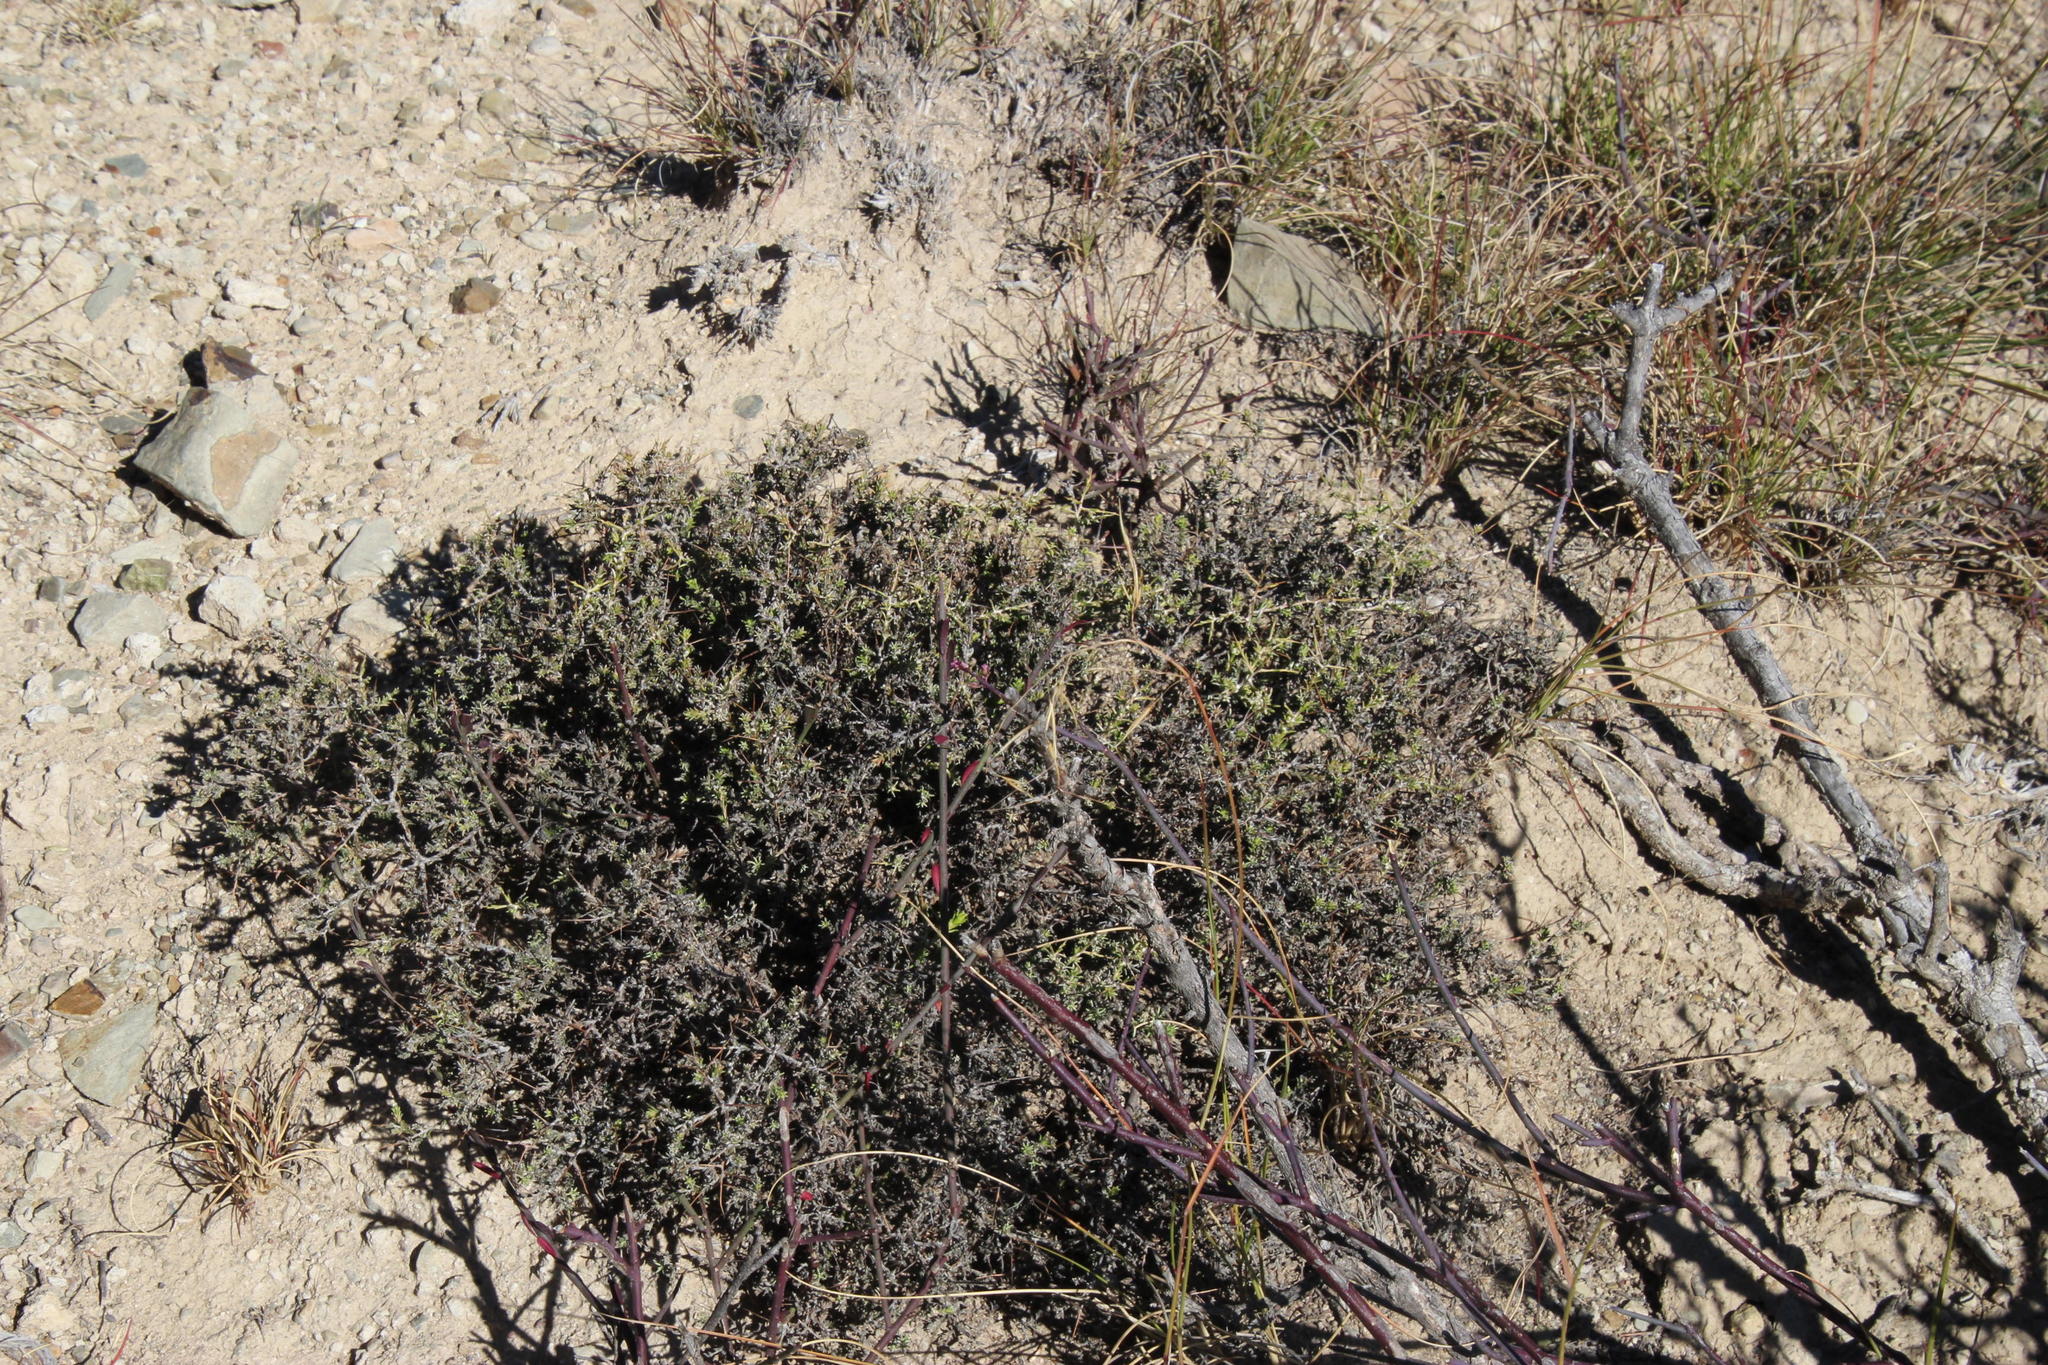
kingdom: Plantae
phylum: Tracheophyta
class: Magnoliopsida
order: Fabales
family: Fabaceae
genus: Melolobium
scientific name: Melolobium candicans
